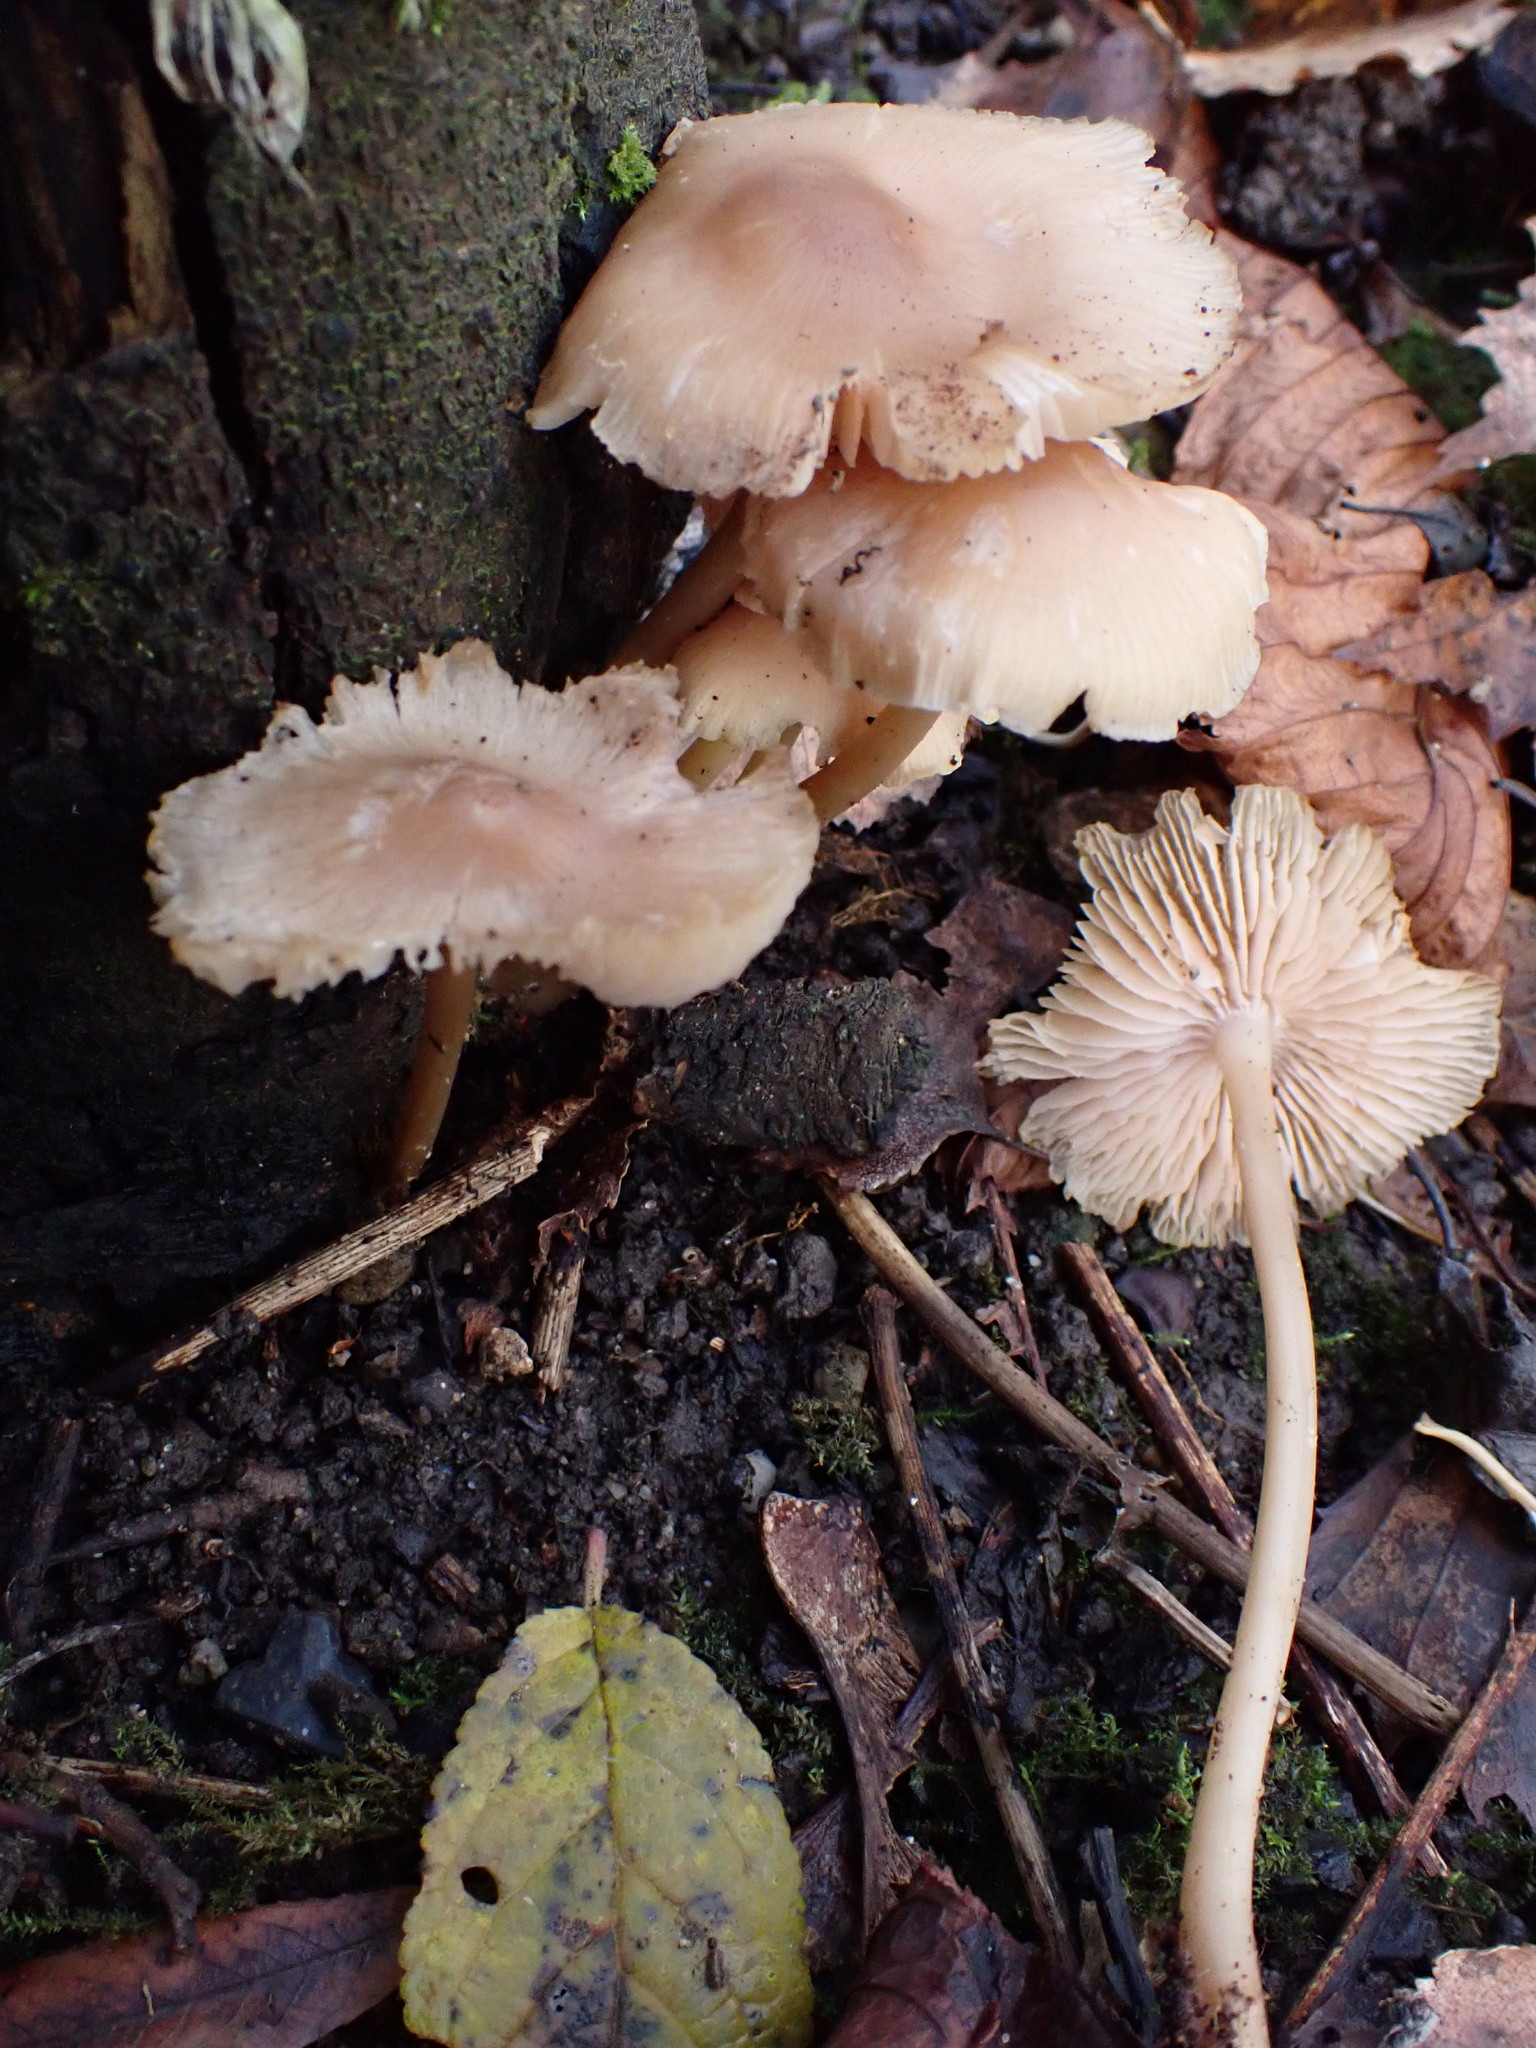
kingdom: Fungi
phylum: Basidiomycota
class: Agaricomycetes
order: Agaricales
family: Mycenaceae
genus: Mycena
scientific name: Mycena galericulata
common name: Bonnet mycena
